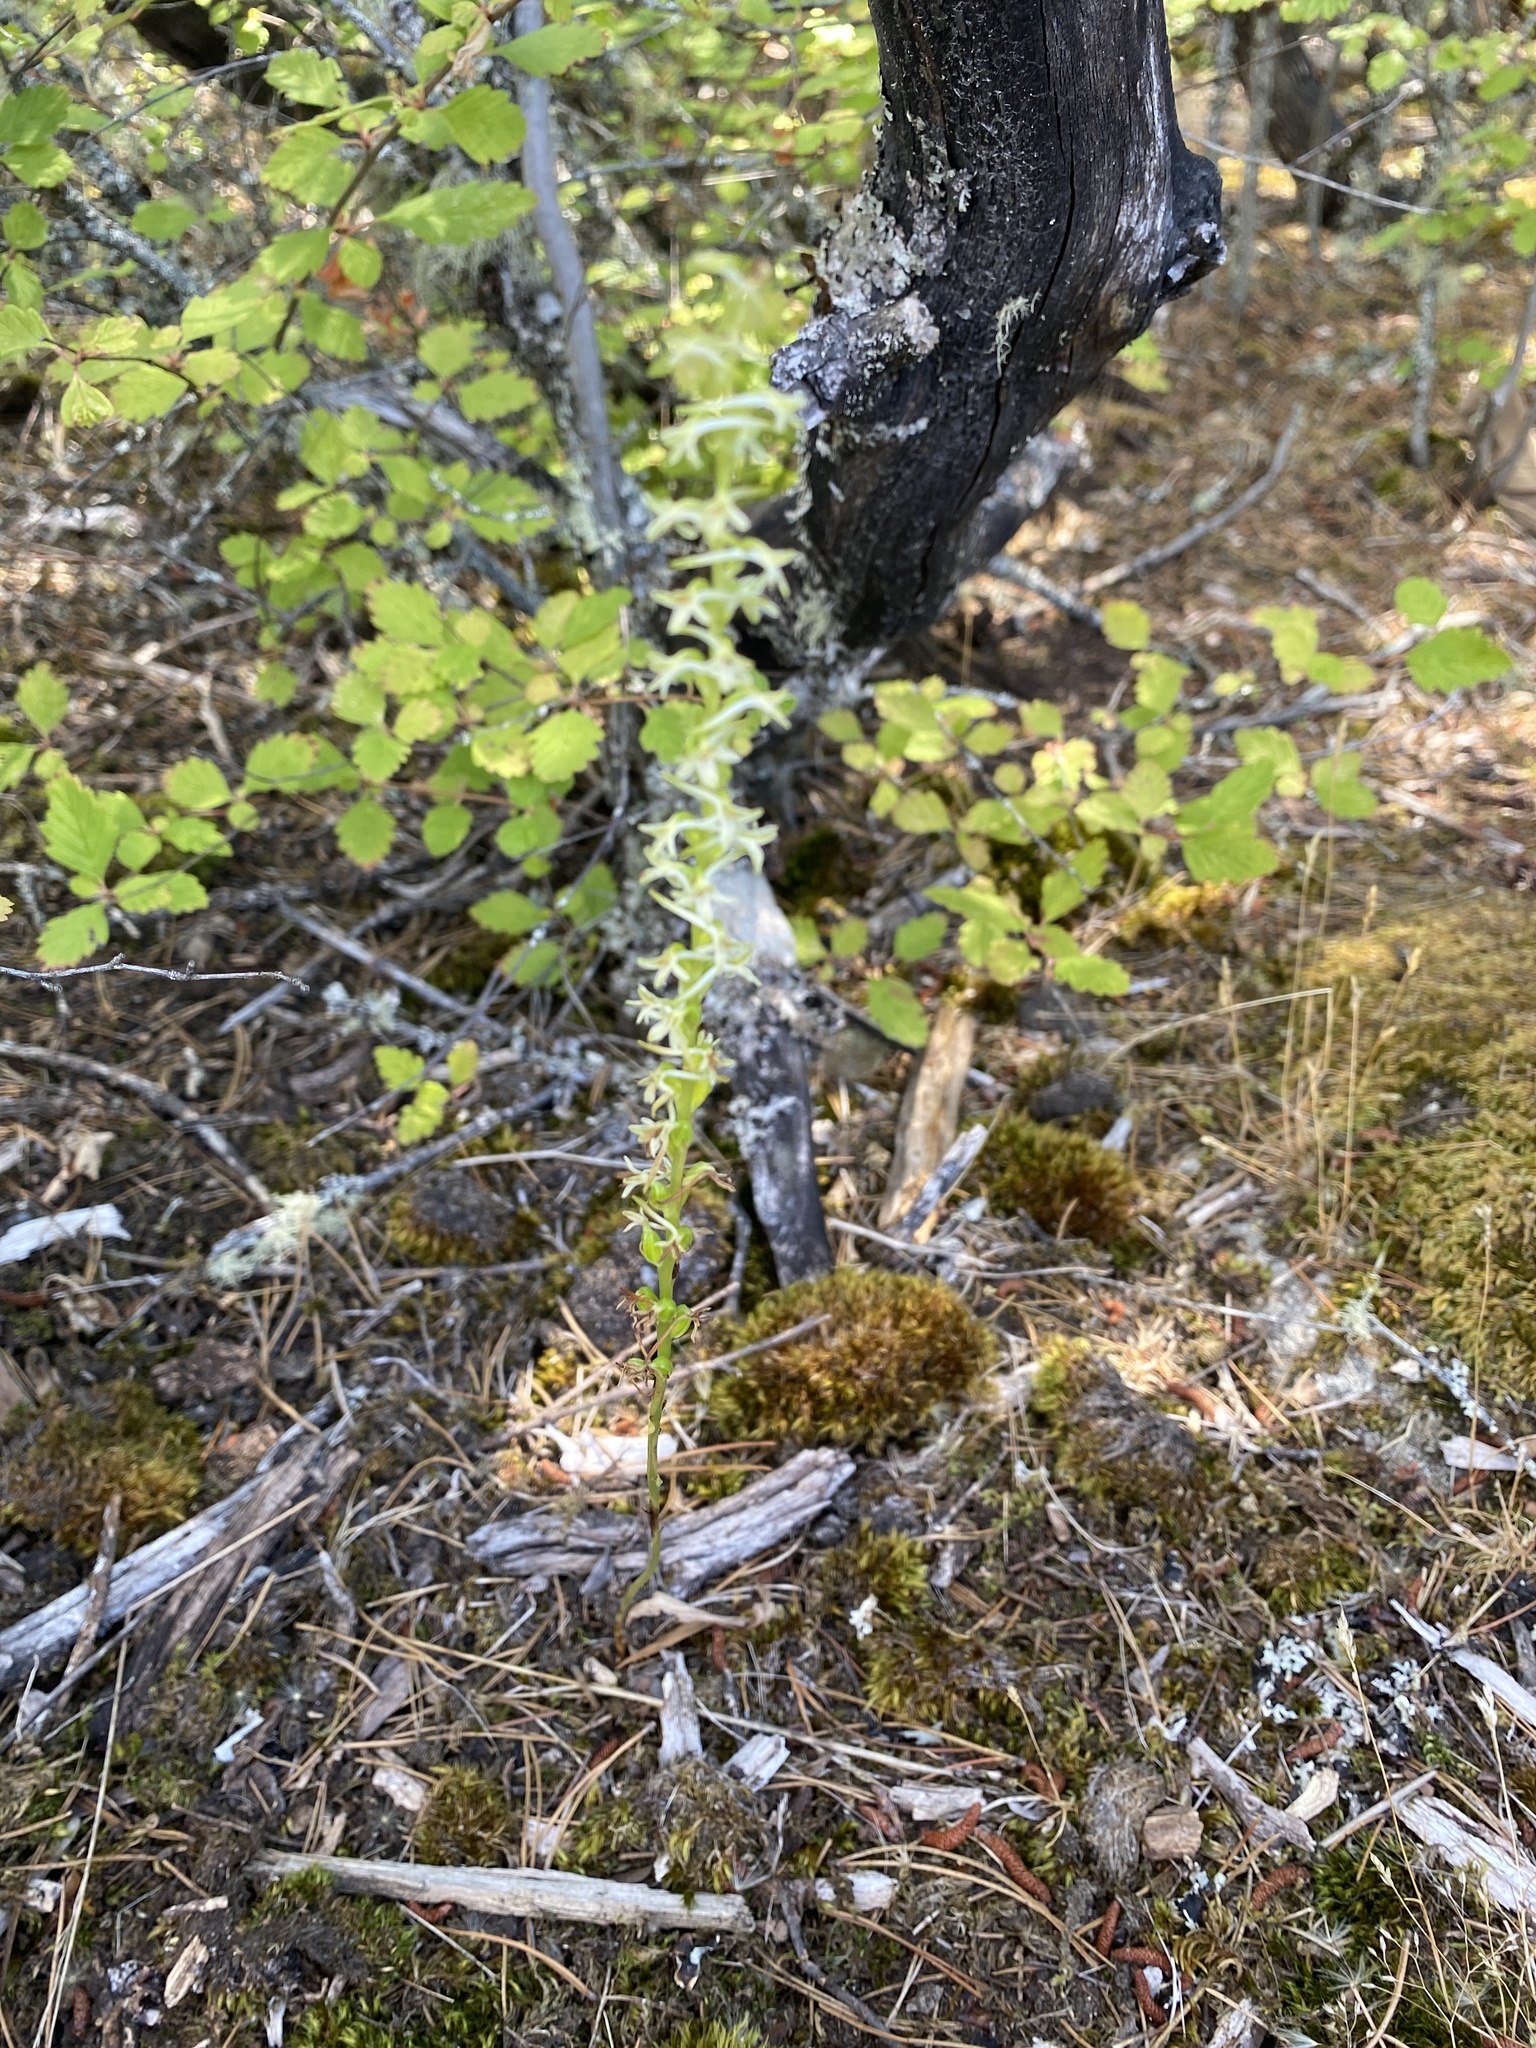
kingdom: Plantae
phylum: Tracheophyta
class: Liliopsida
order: Asparagales
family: Orchidaceae
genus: Platanthera
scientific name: Platanthera transversa
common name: Royal rein orchid
